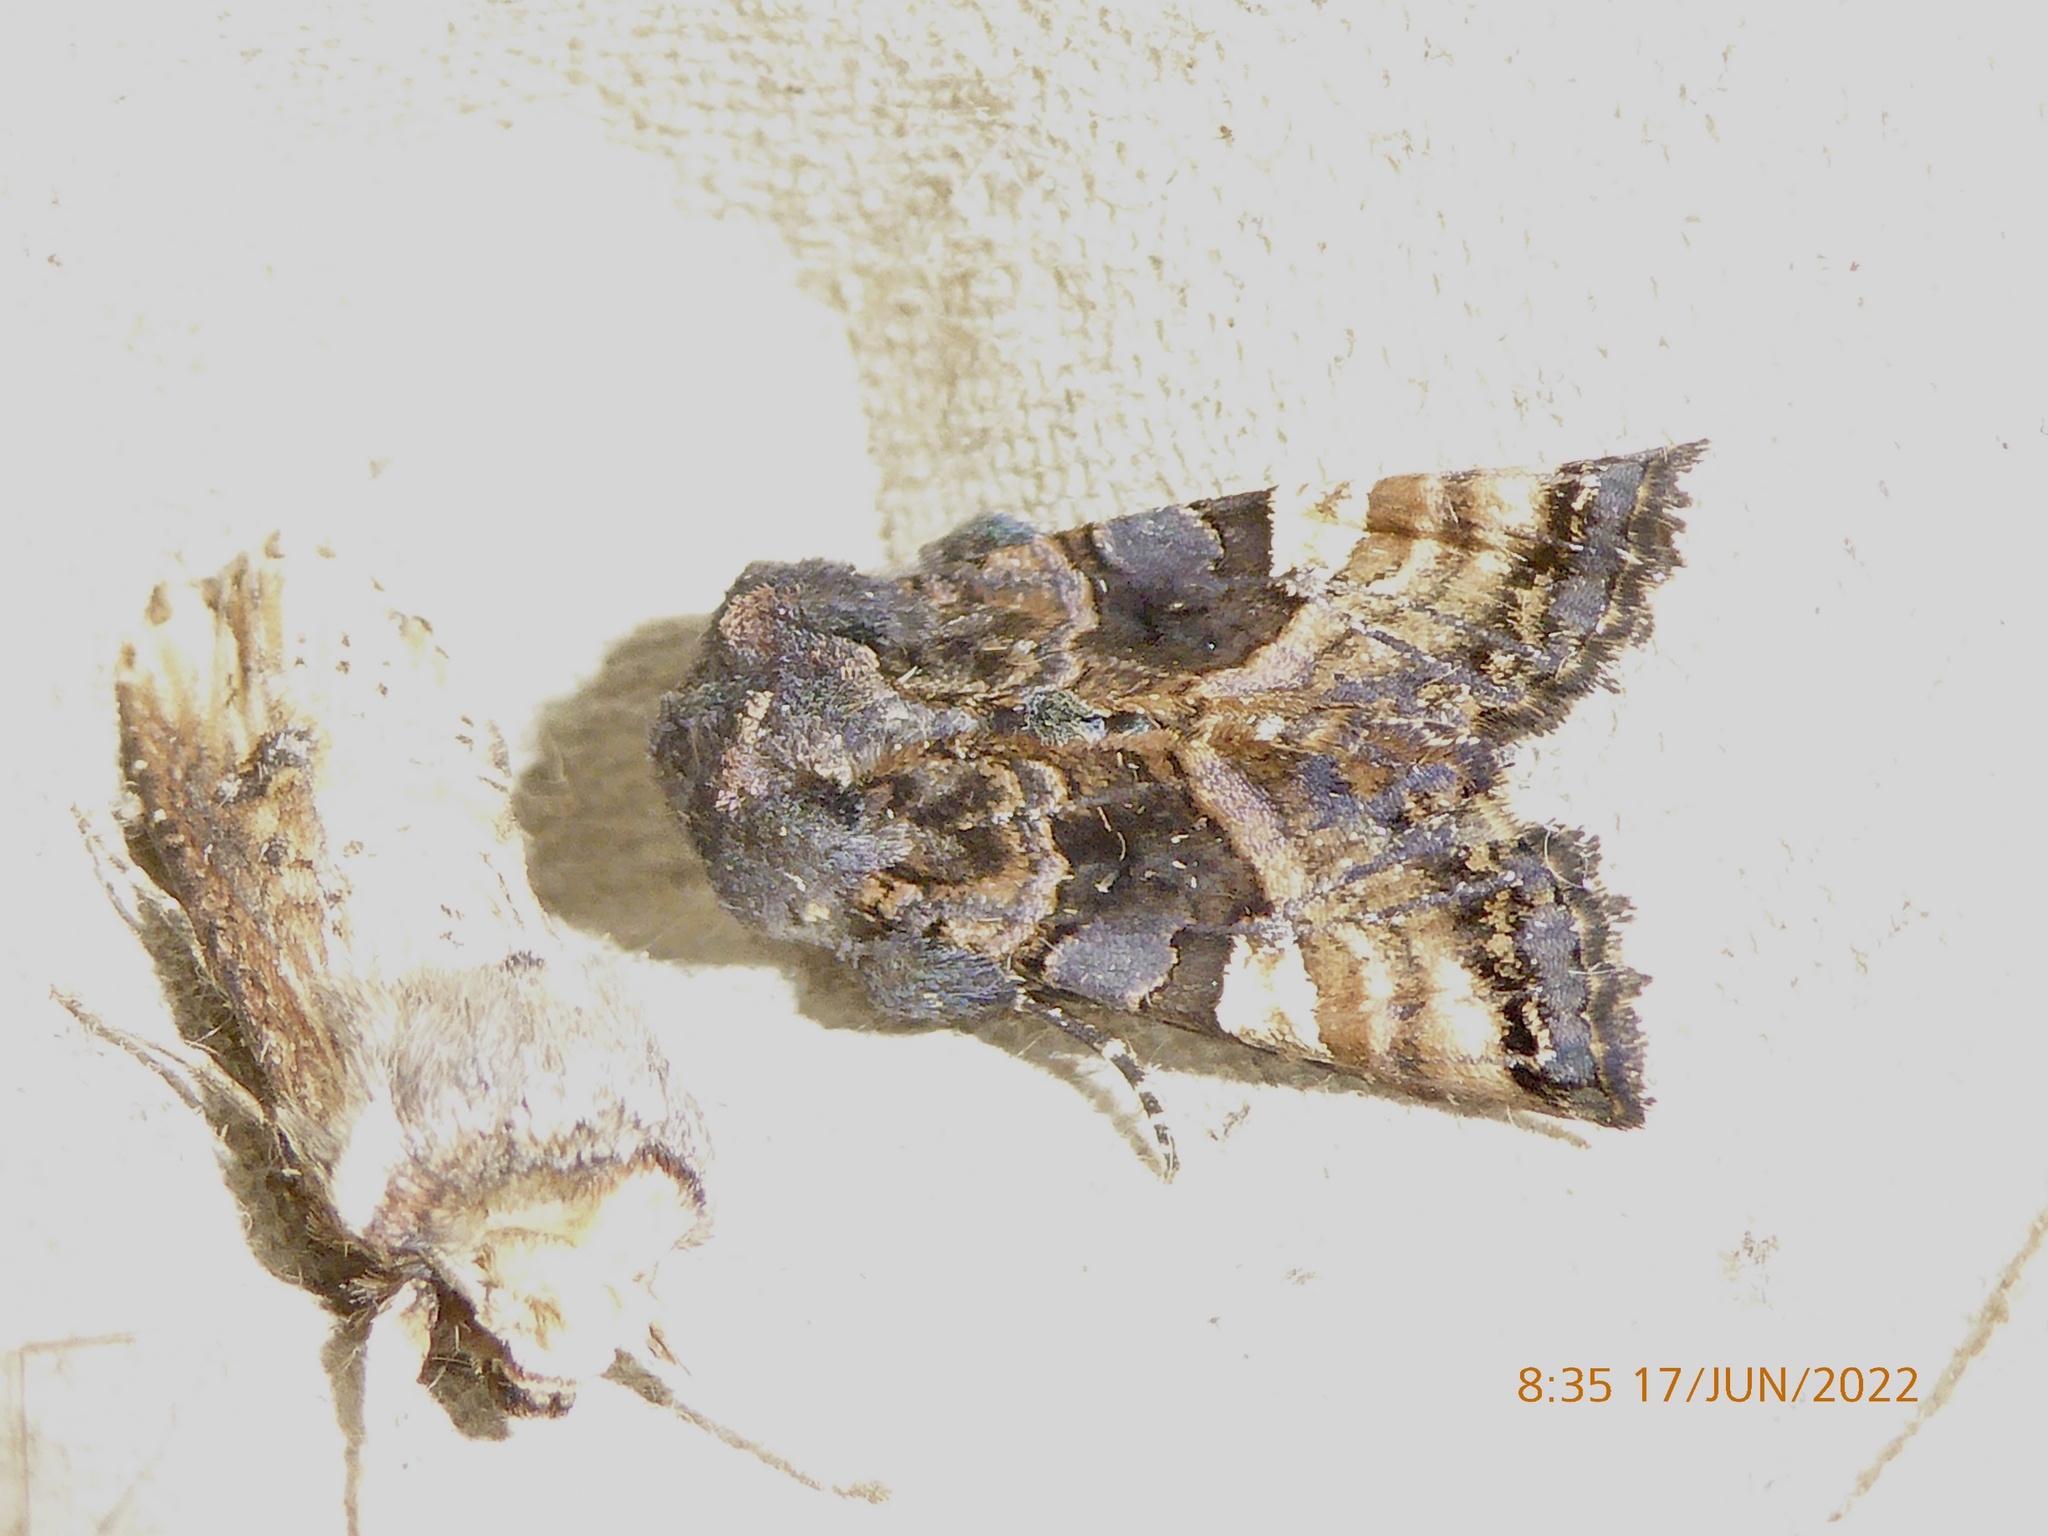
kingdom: Animalia
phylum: Arthropoda
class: Insecta
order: Lepidoptera
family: Noctuidae
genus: Euplexia
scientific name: Euplexia lucipara
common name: Small angle shades
